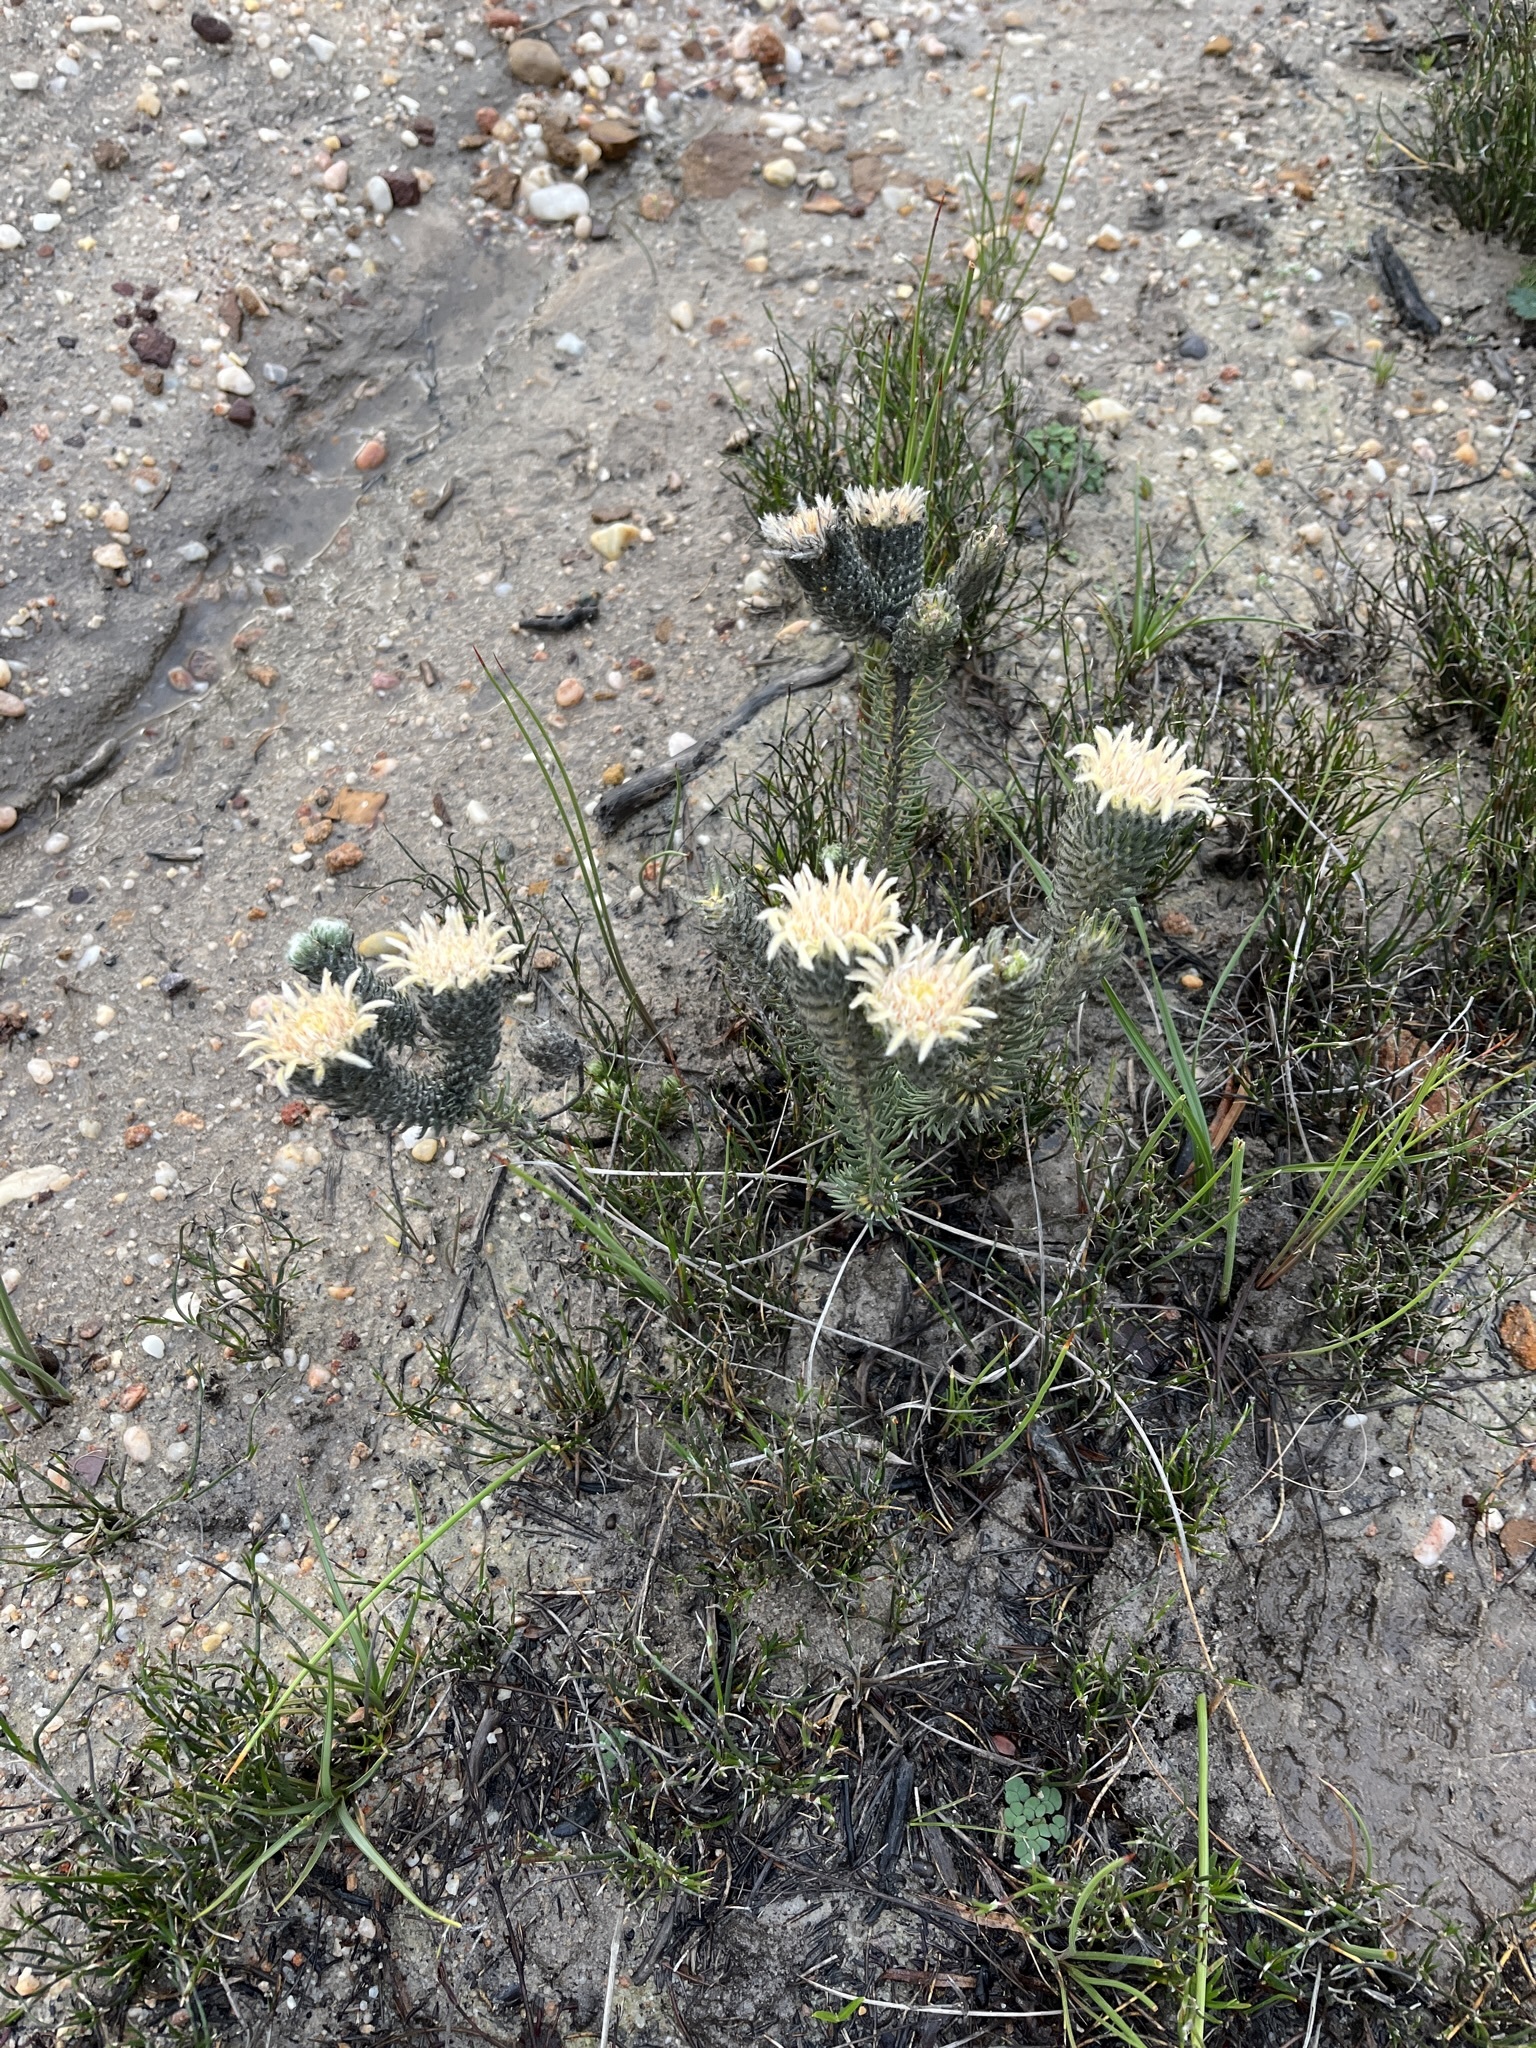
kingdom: Plantae
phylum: Tracheophyta
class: Magnoliopsida
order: Rosales
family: Rhamnaceae
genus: Phylica
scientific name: Phylica affinis
